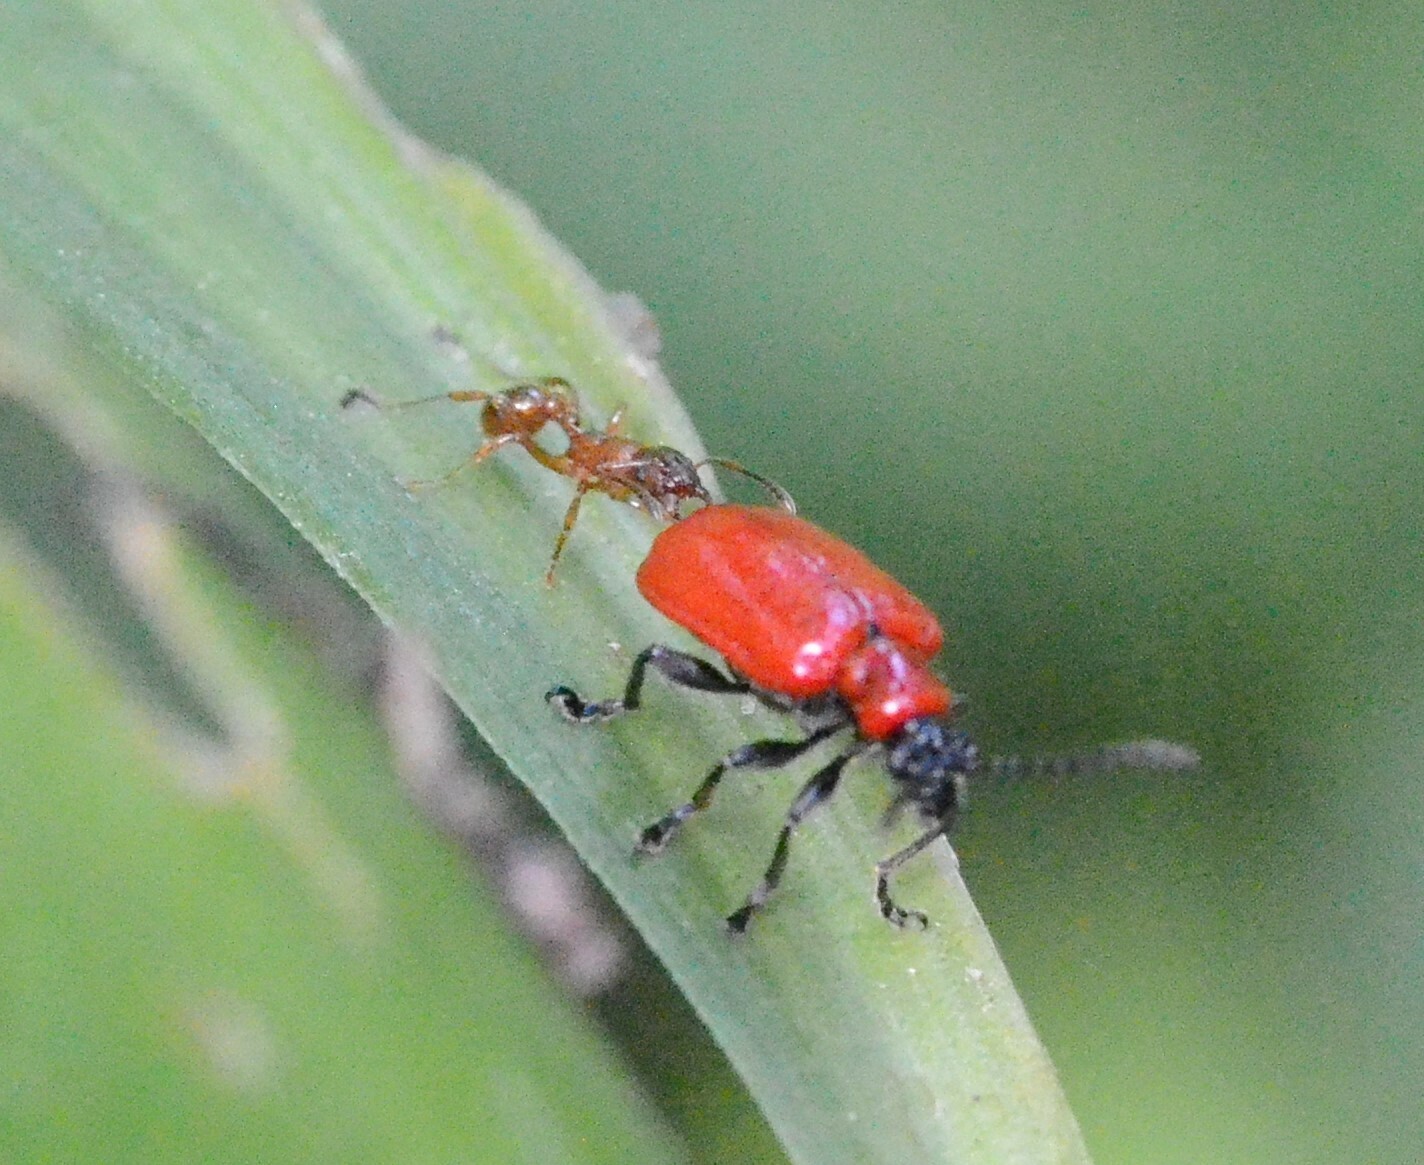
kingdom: Animalia
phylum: Arthropoda
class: Insecta
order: Coleoptera
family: Chrysomelidae
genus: Lilioceris
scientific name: Lilioceris lilii
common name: Lily beetle
